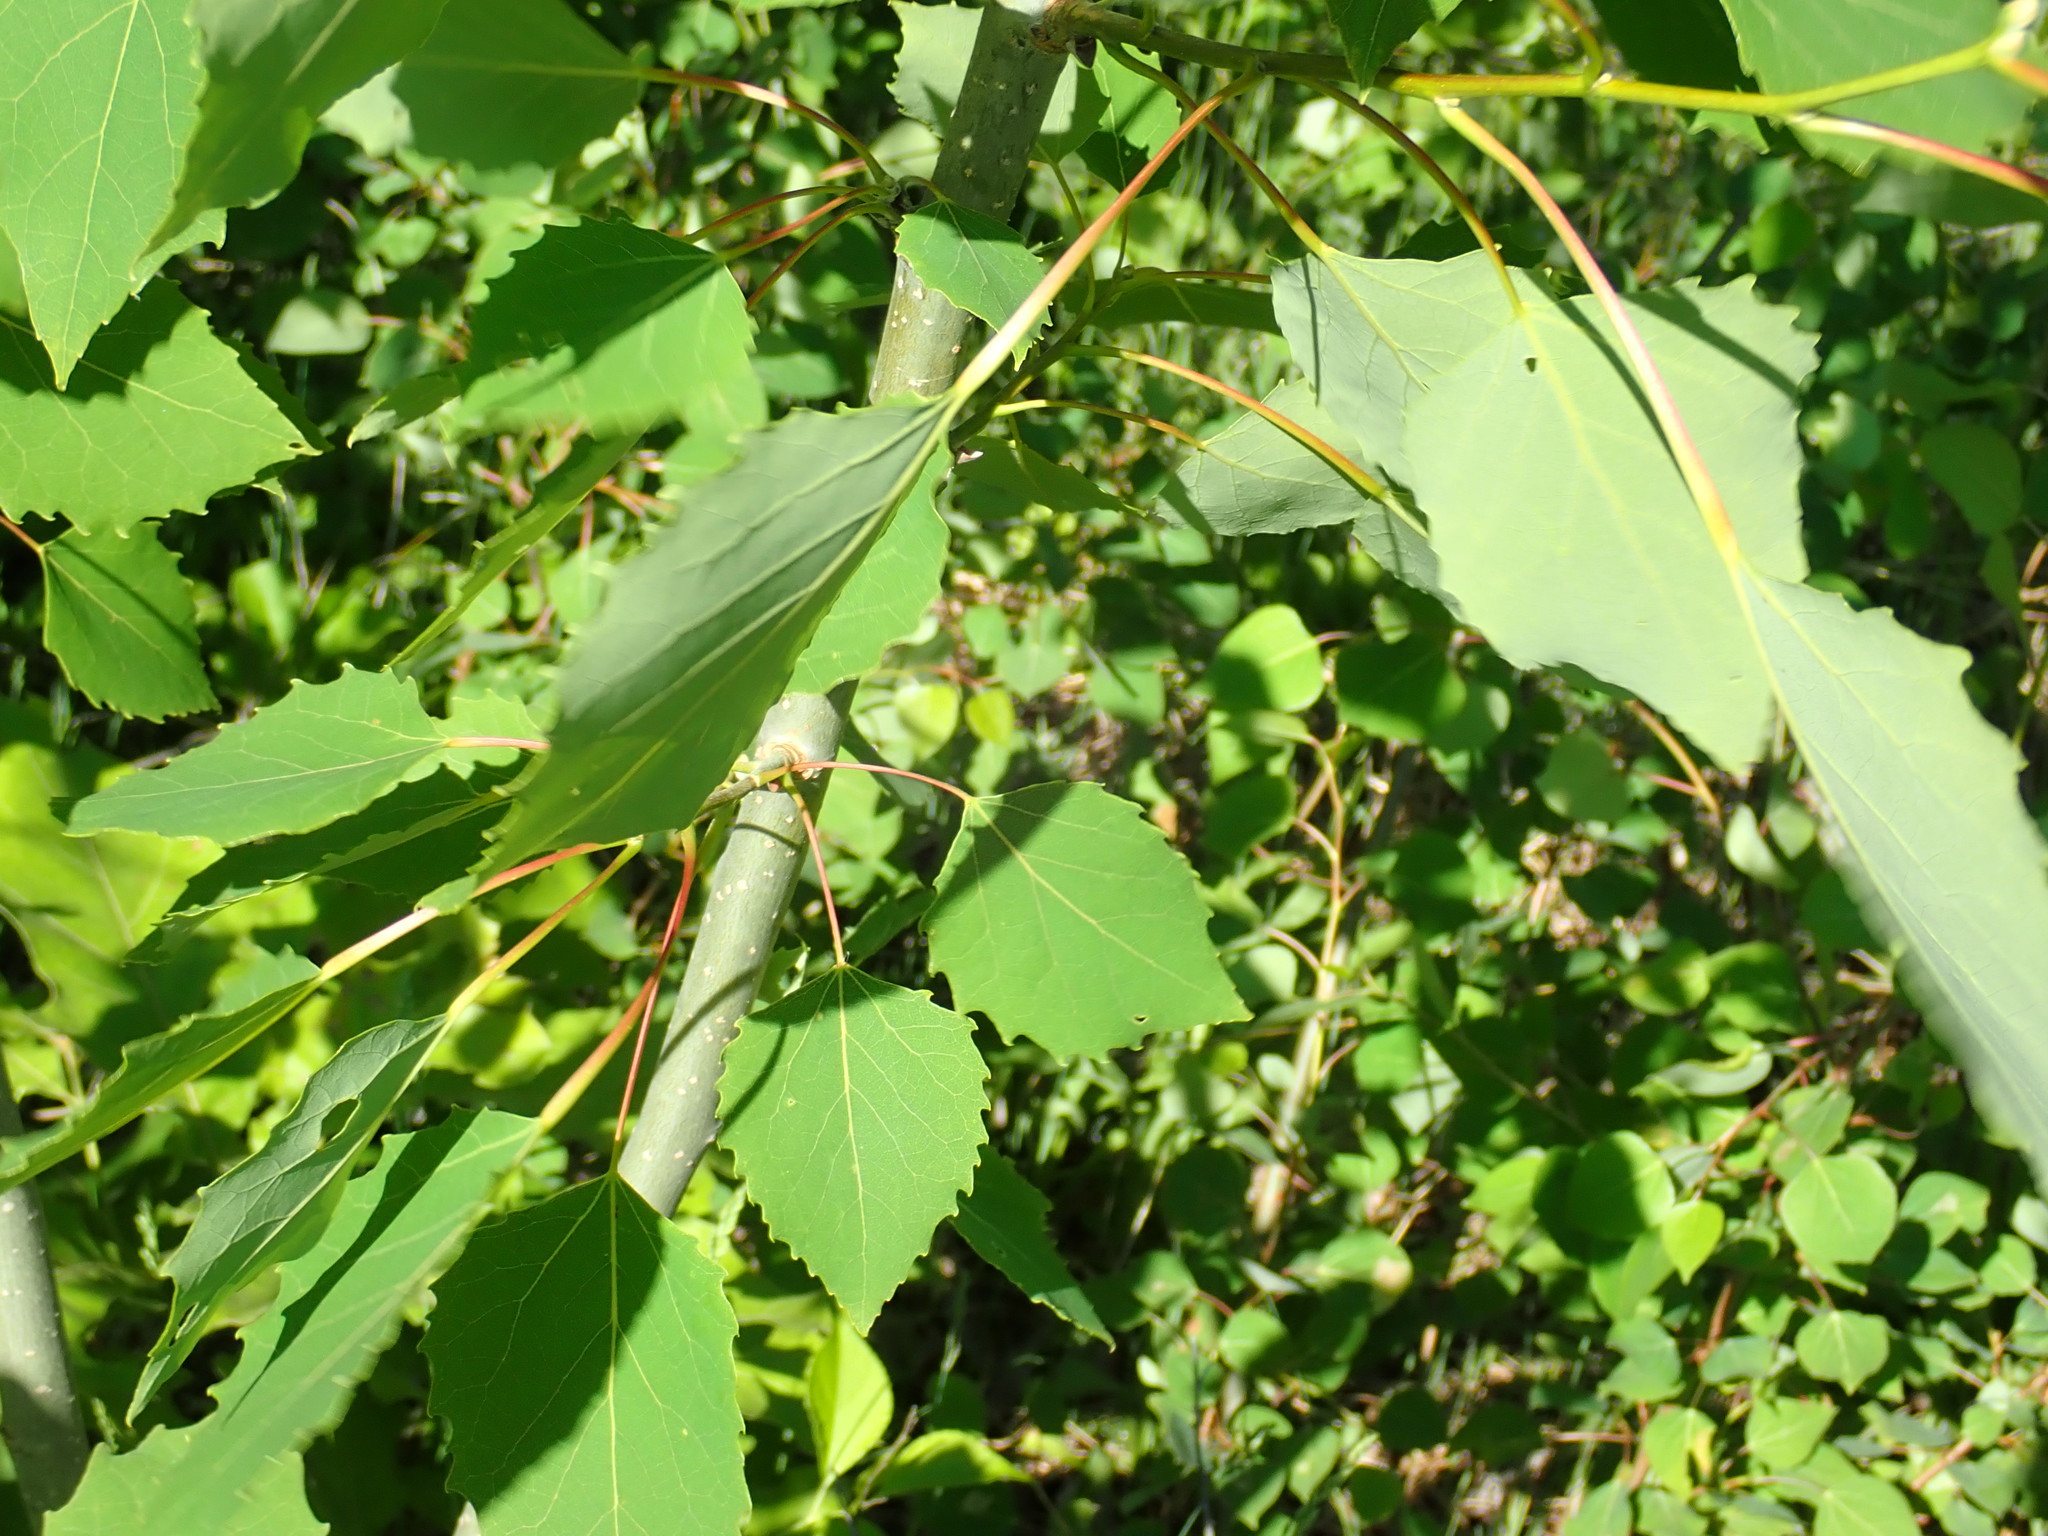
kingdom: Plantae
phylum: Tracheophyta
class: Magnoliopsida
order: Malpighiales
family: Salicaceae
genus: Populus
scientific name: Populus grandidentata
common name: Bigtooth aspen
